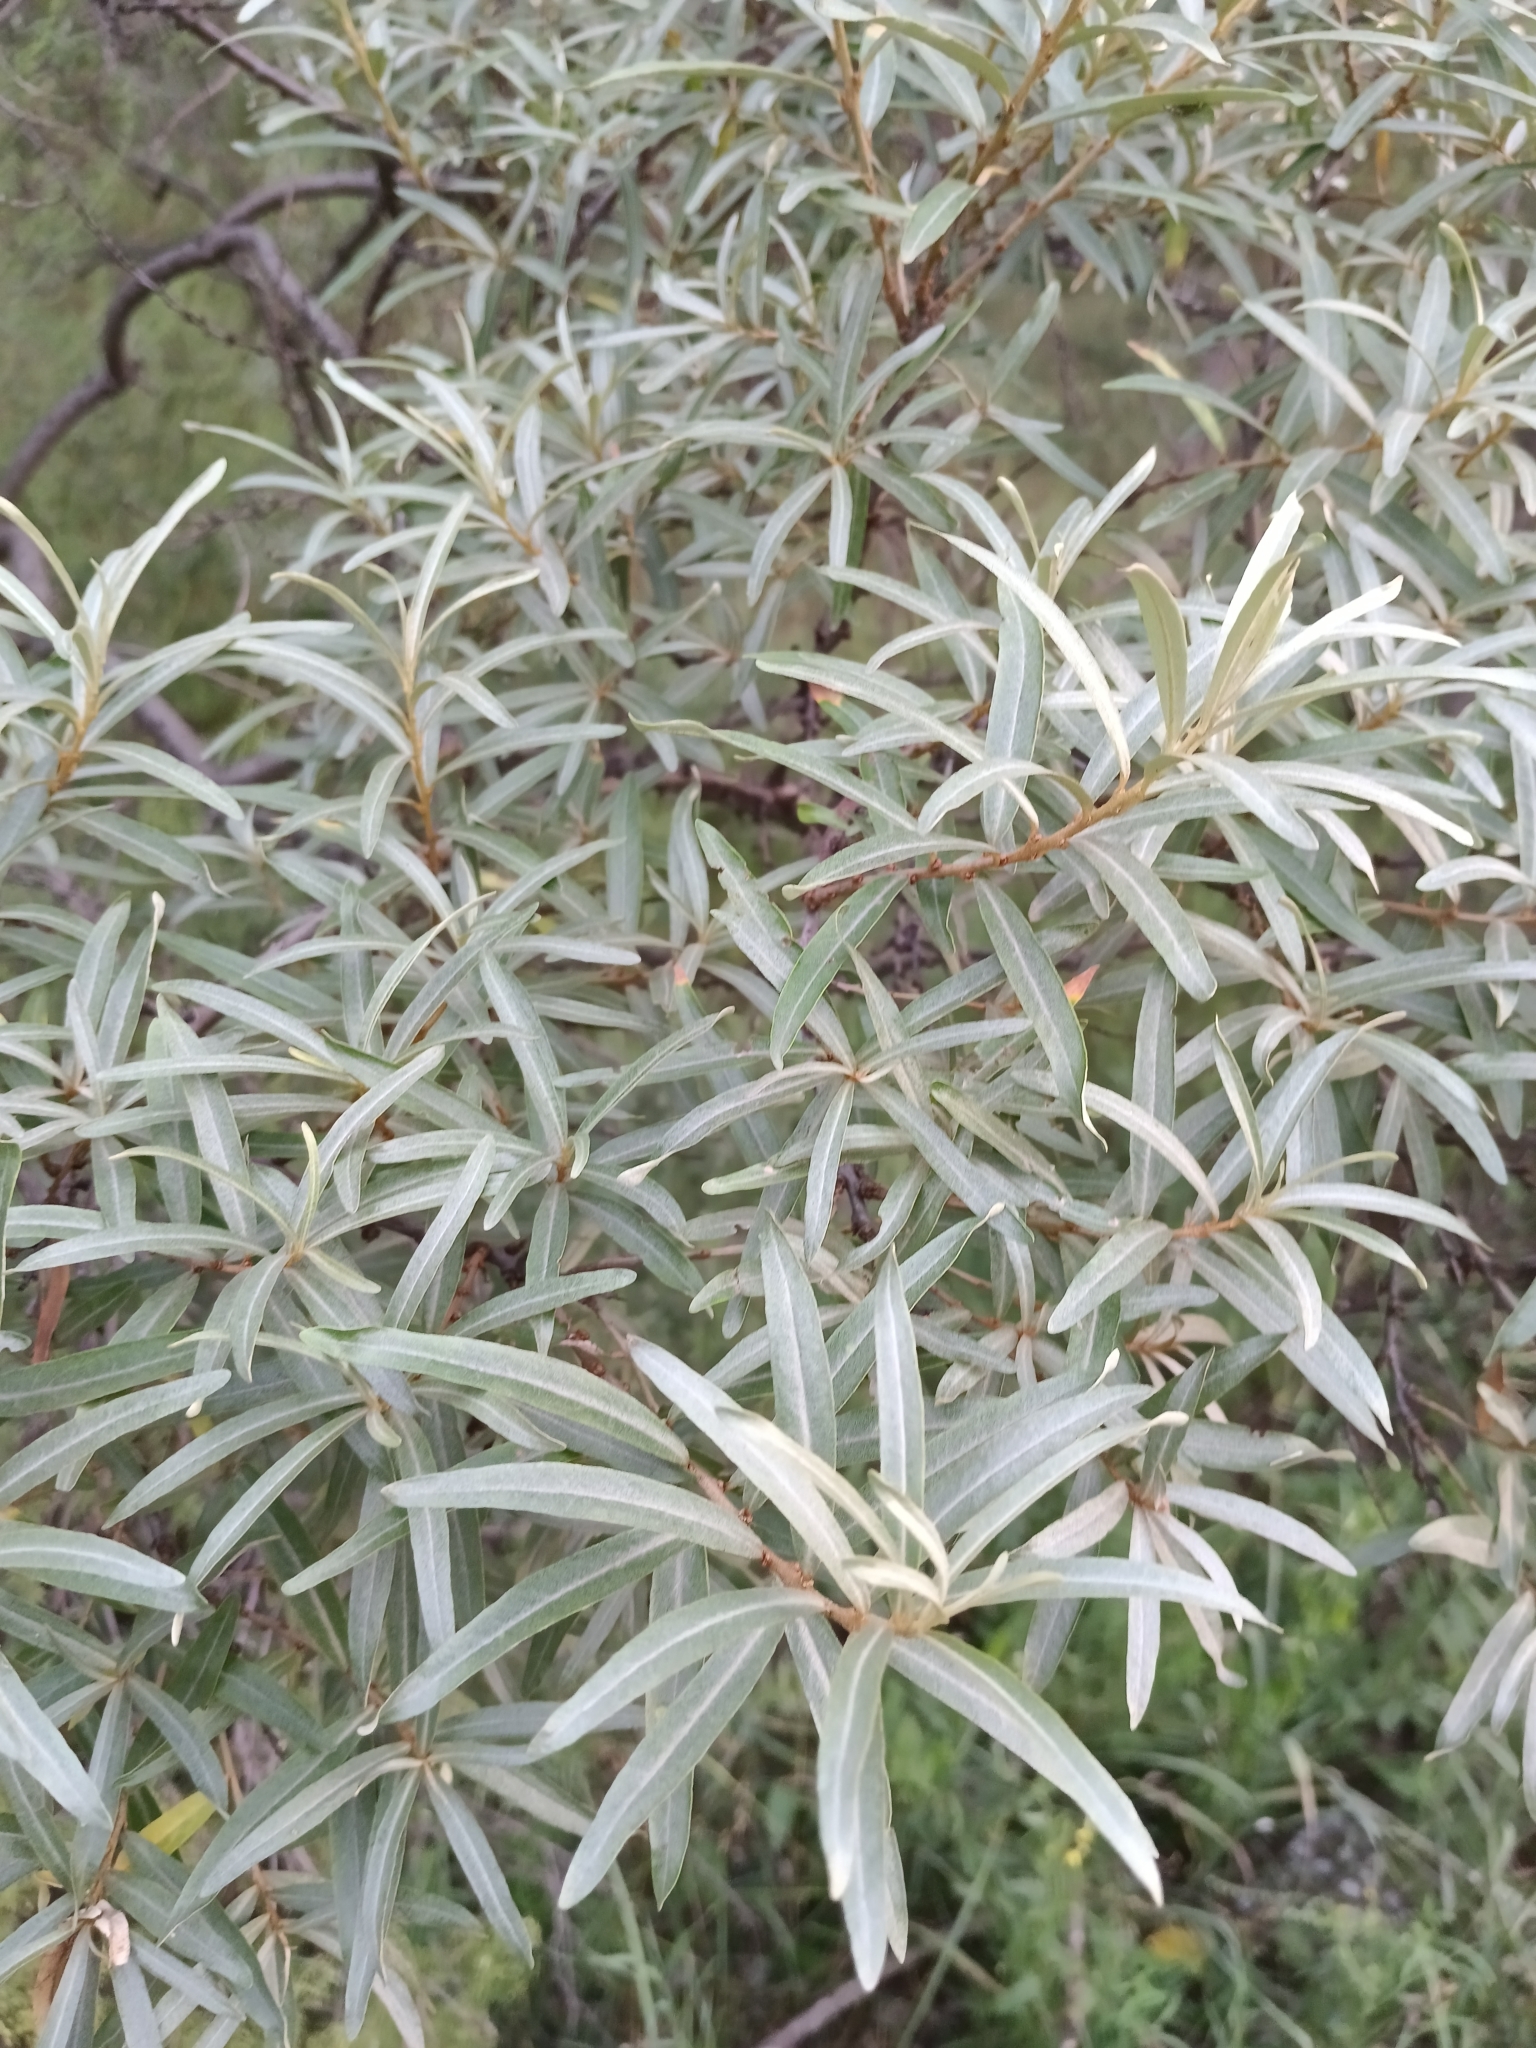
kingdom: Plantae
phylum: Tracheophyta
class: Magnoliopsida
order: Rosales
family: Elaeagnaceae
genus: Hippophae
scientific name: Hippophae rhamnoides
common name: Sea-buckthorn
